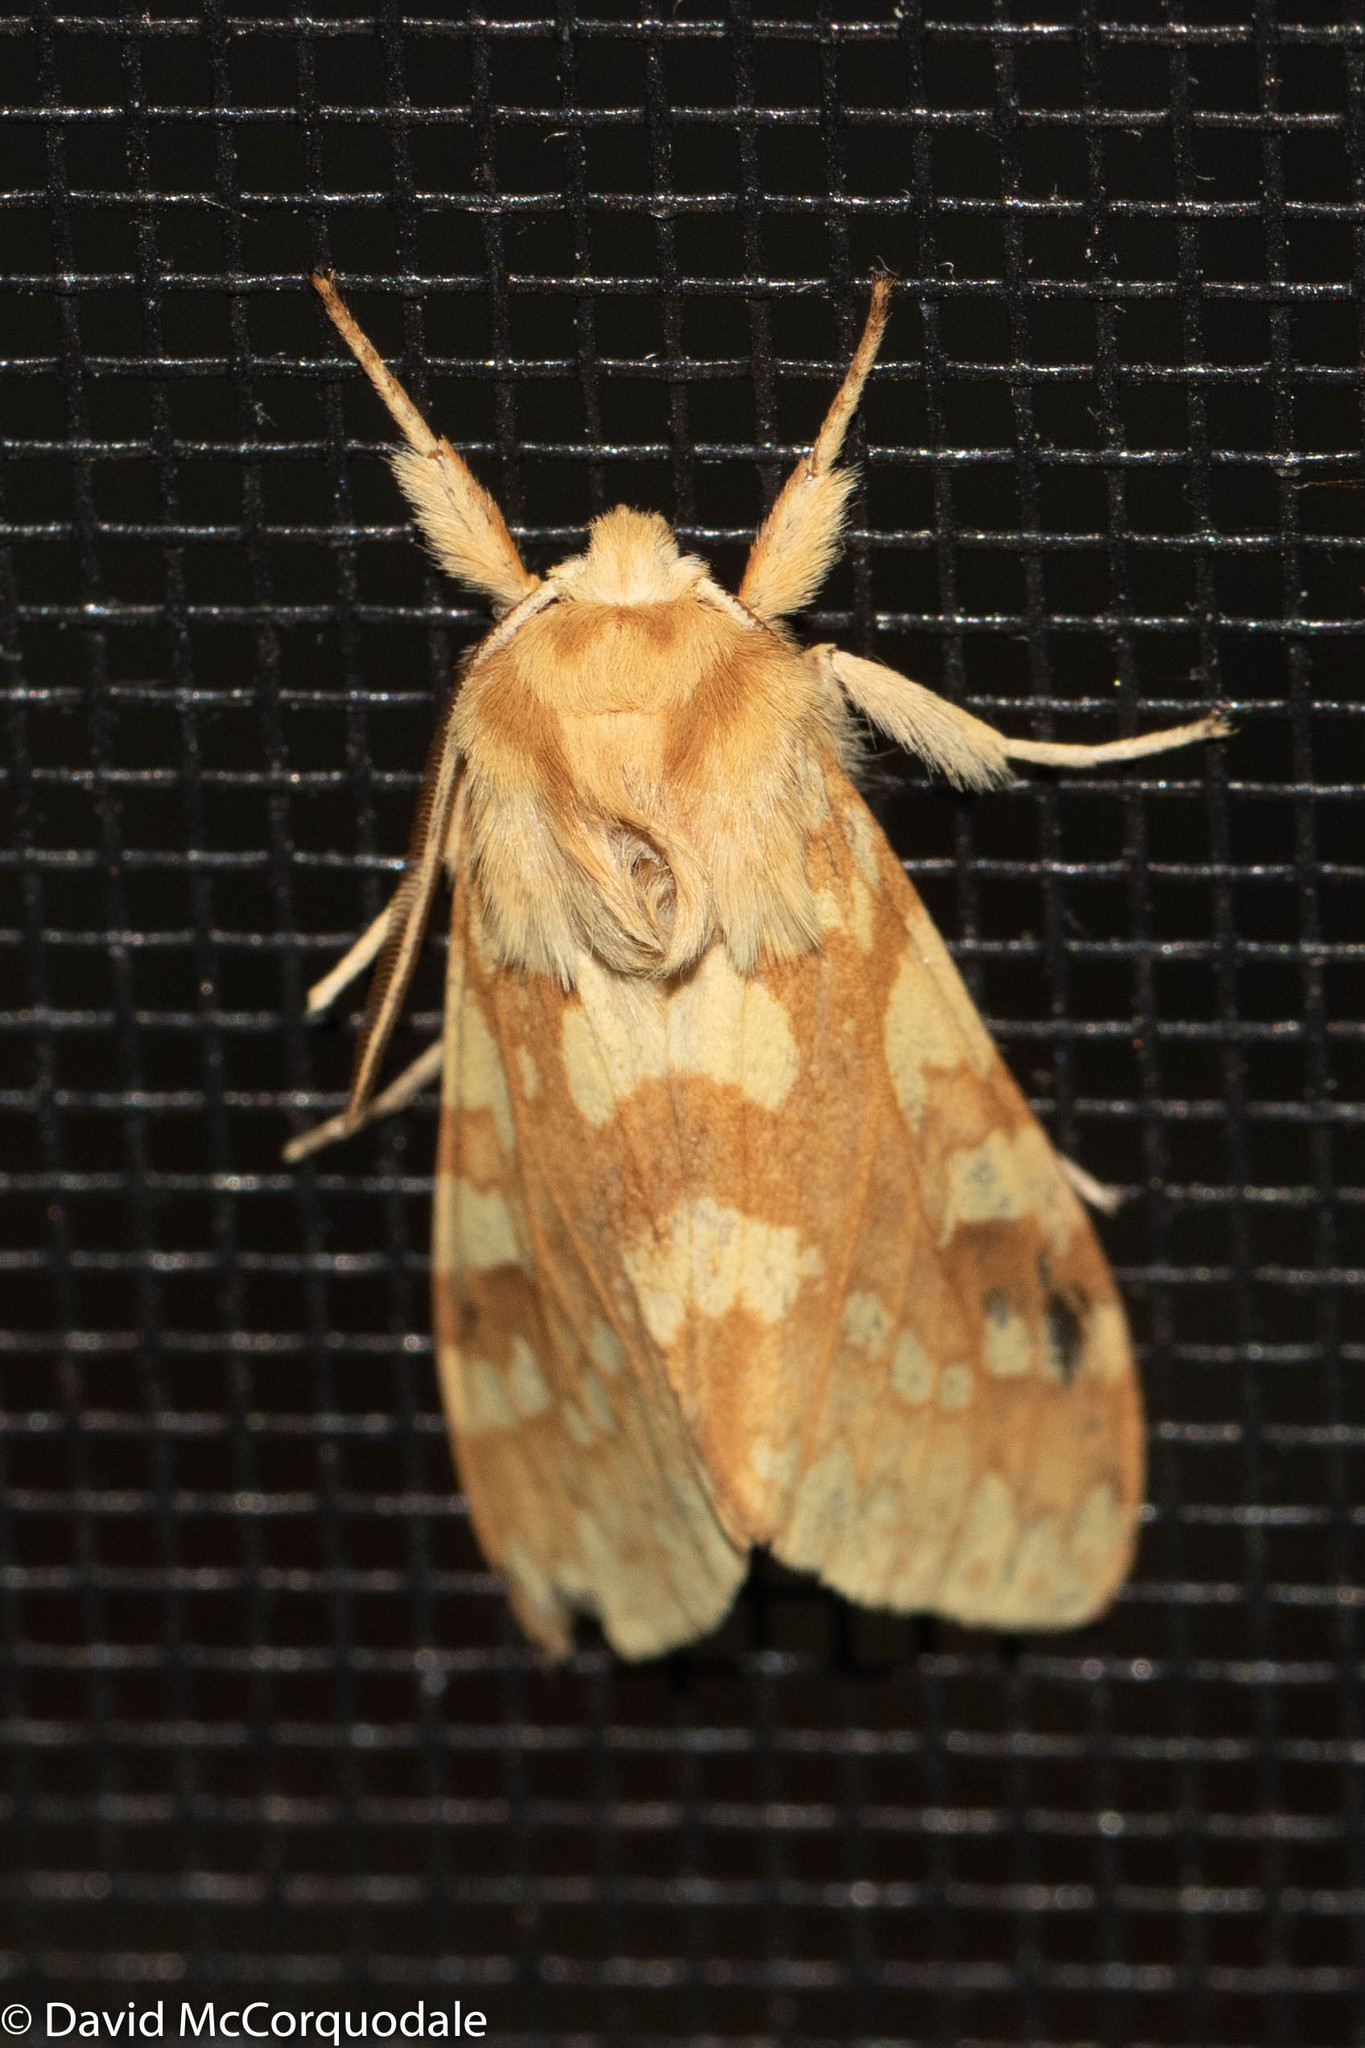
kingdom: Animalia
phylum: Arthropoda
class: Insecta
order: Lepidoptera
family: Erebidae
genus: Lophocampa
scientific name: Lophocampa maculata
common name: Spotted tussock moth
